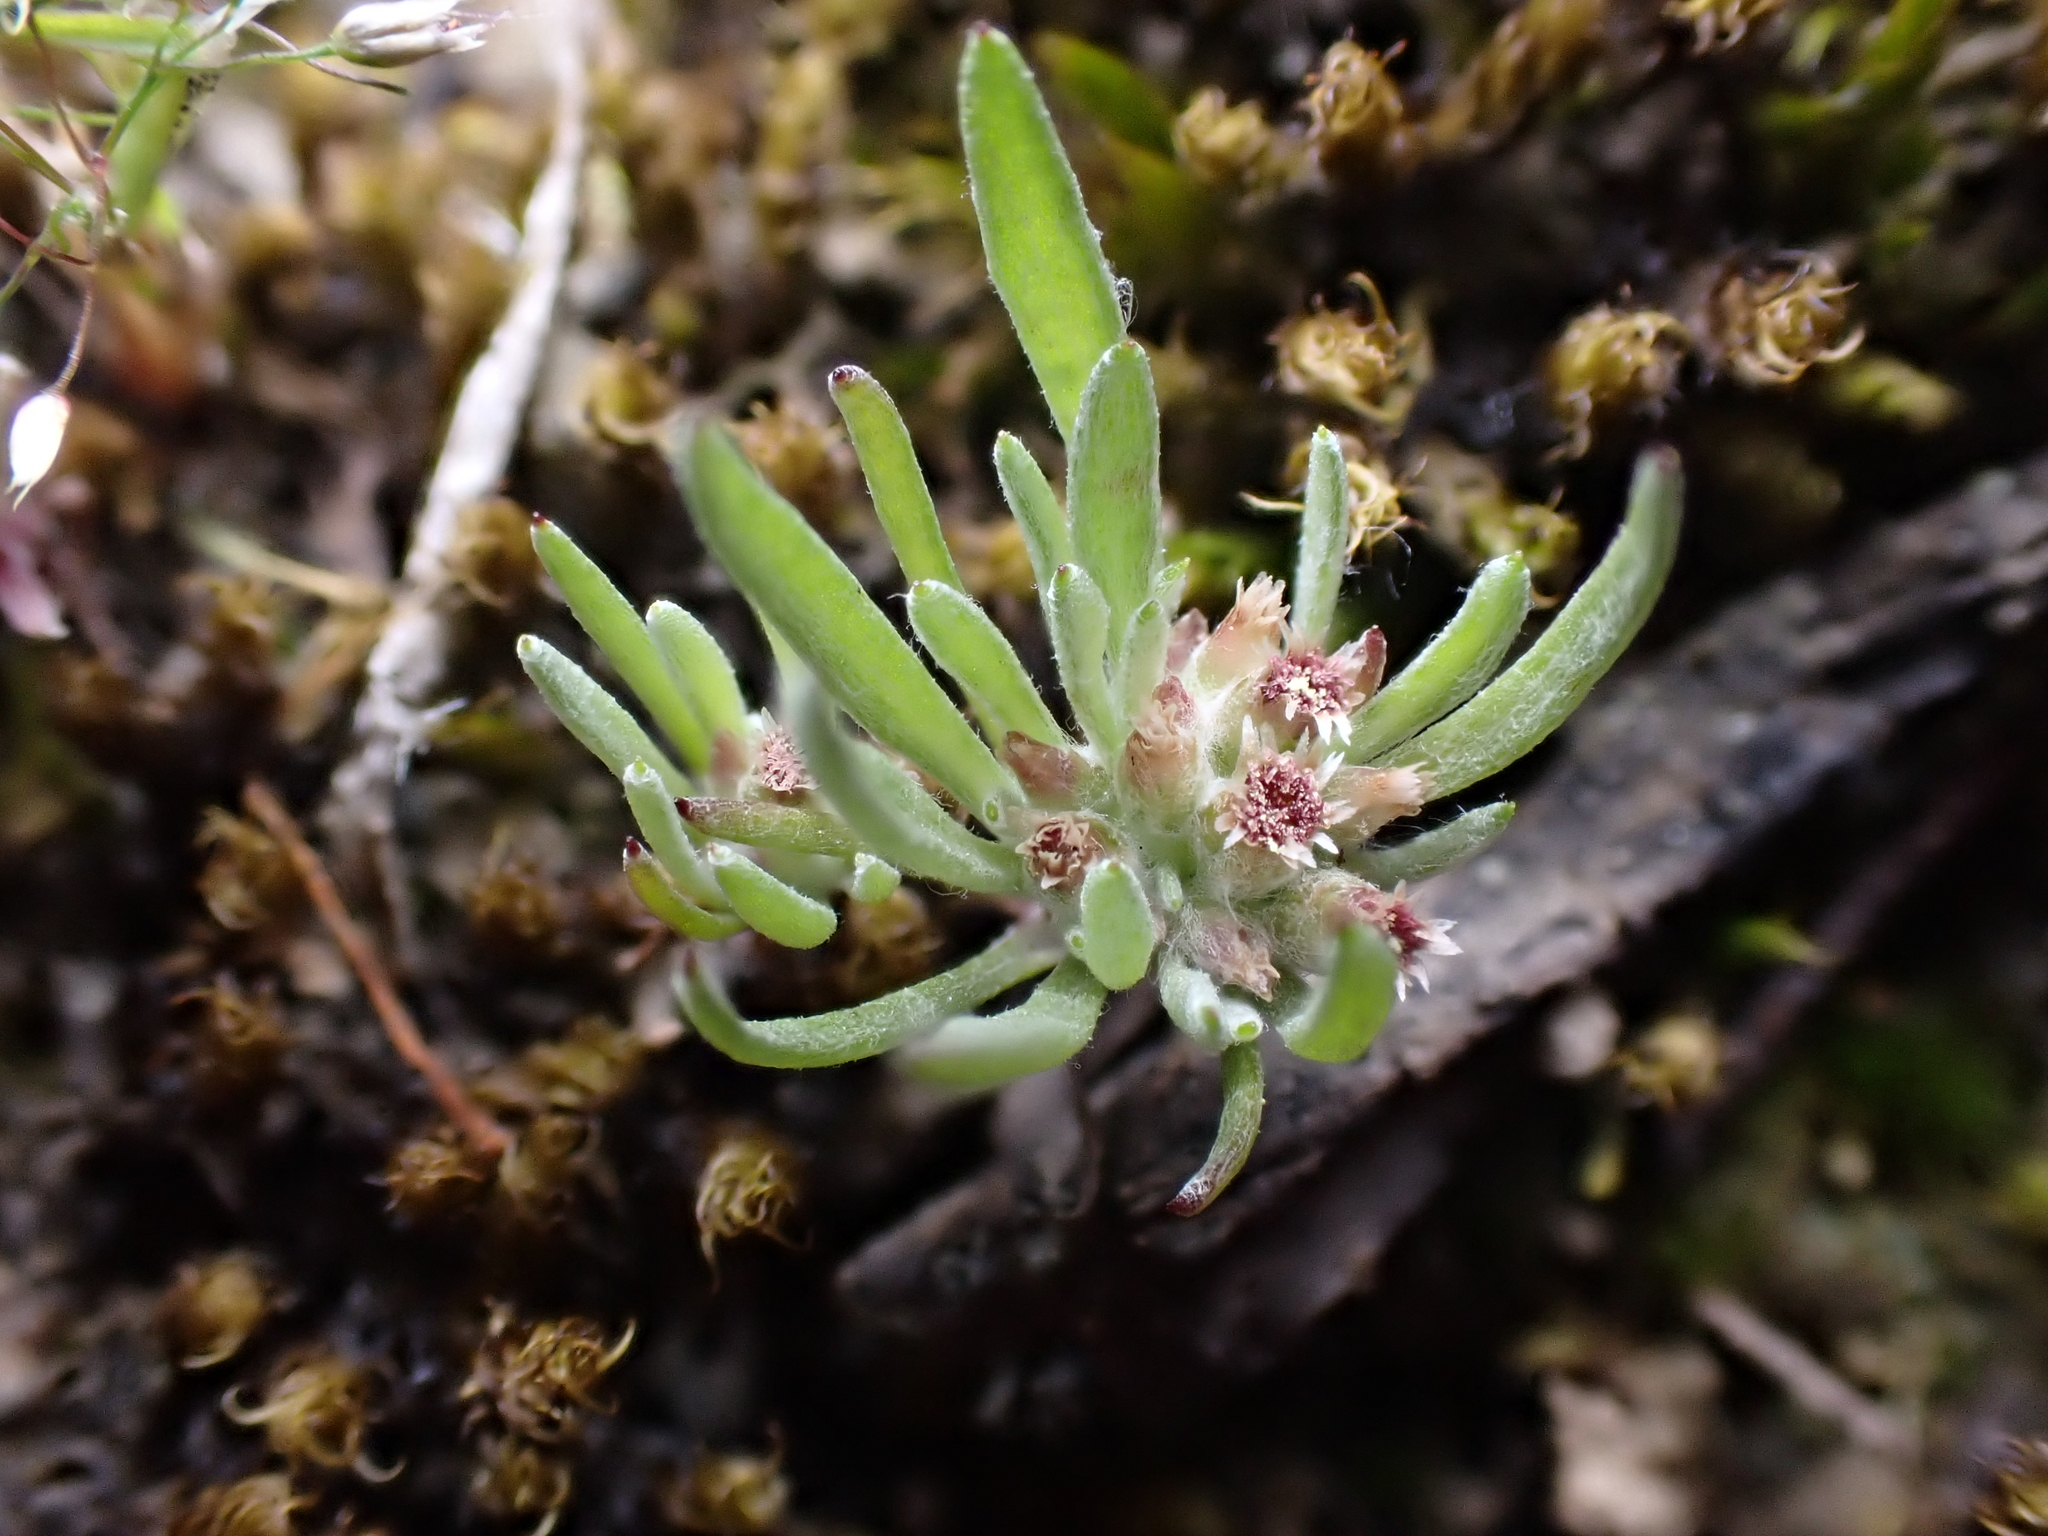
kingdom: Plantae
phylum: Tracheophyta
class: Magnoliopsida
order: Asterales
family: Asteraceae
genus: Gnaphalium
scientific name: Gnaphalium indutum
